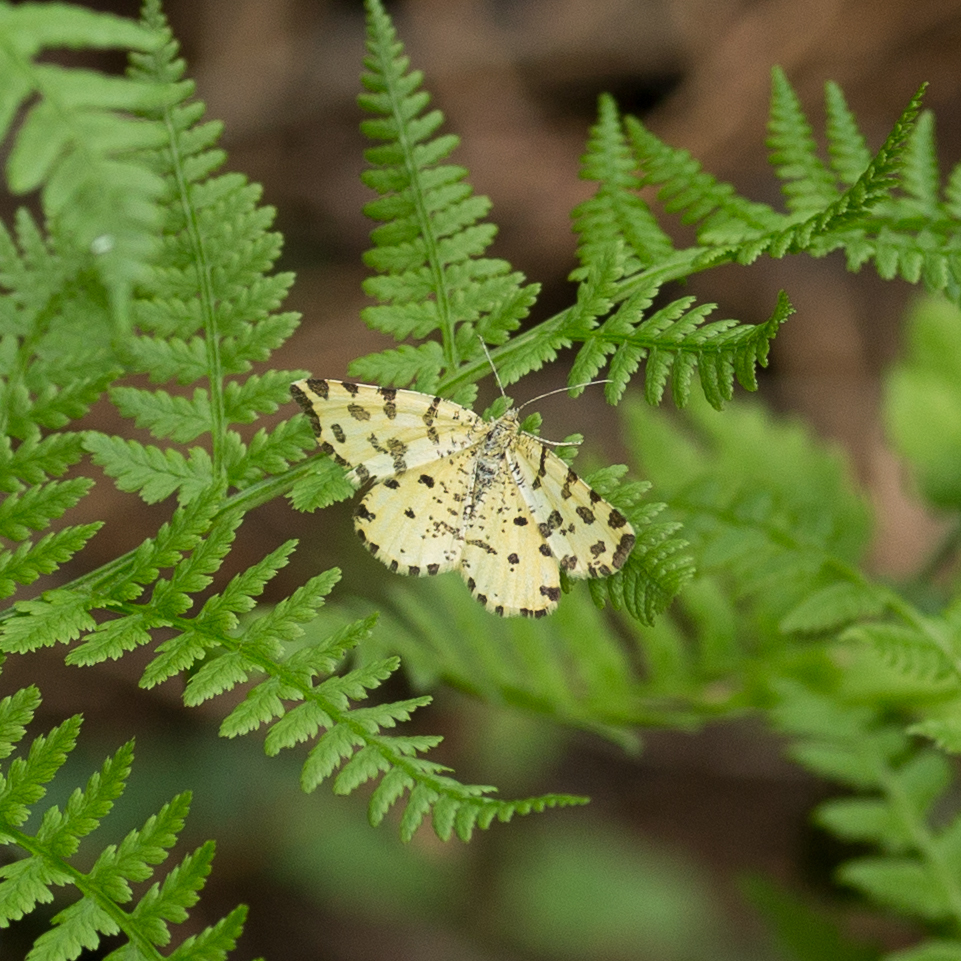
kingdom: Animalia
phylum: Arthropoda
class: Insecta
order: Lepidoptera
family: Geometridae
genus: Pseudopanthera
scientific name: Pseudopanthera macularia
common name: Speckled yellow
